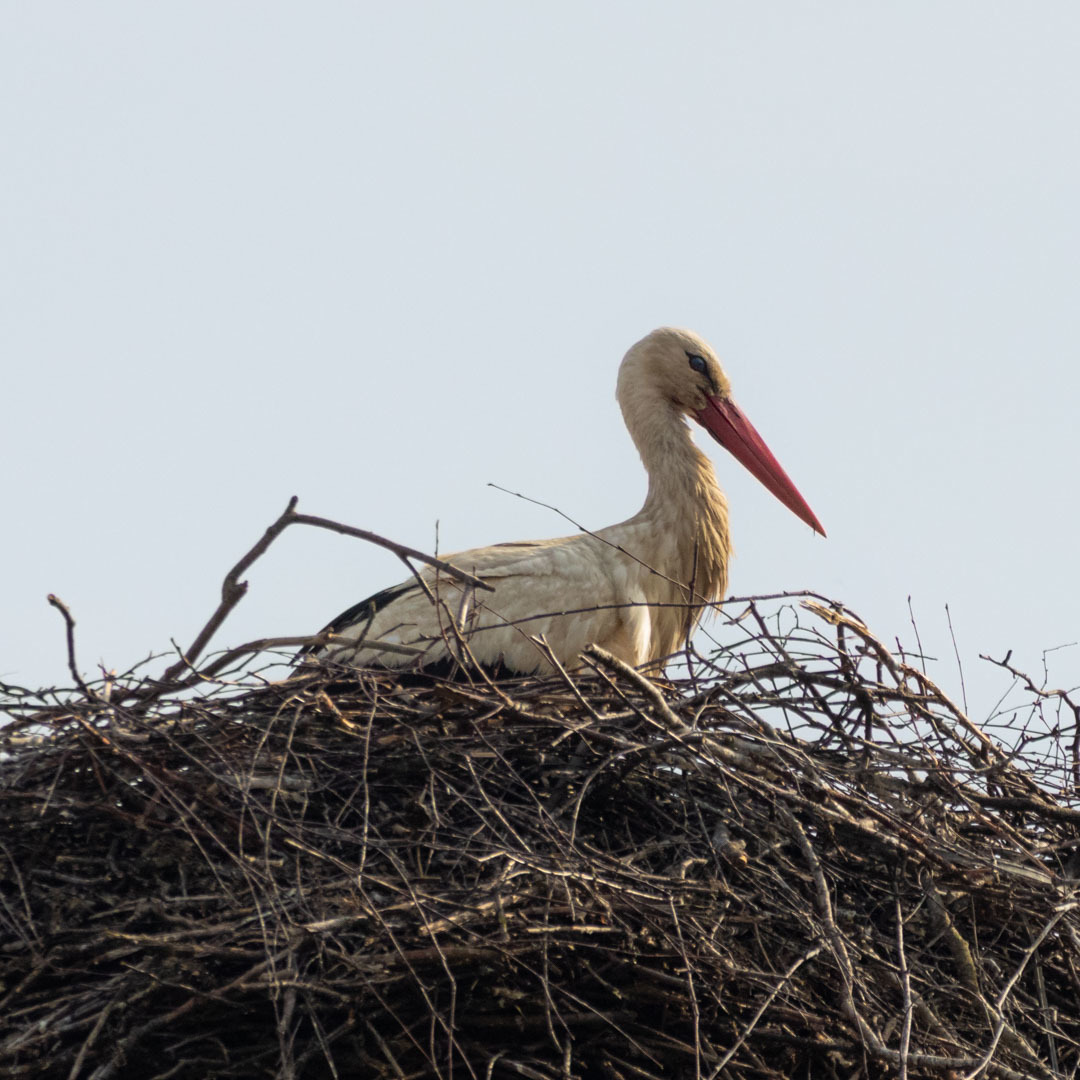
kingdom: Animalia
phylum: Chordata
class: Aves
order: Ciconiiformes
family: Ciconiidae
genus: Ciconia
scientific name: Ciconia ciconia
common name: White stork
